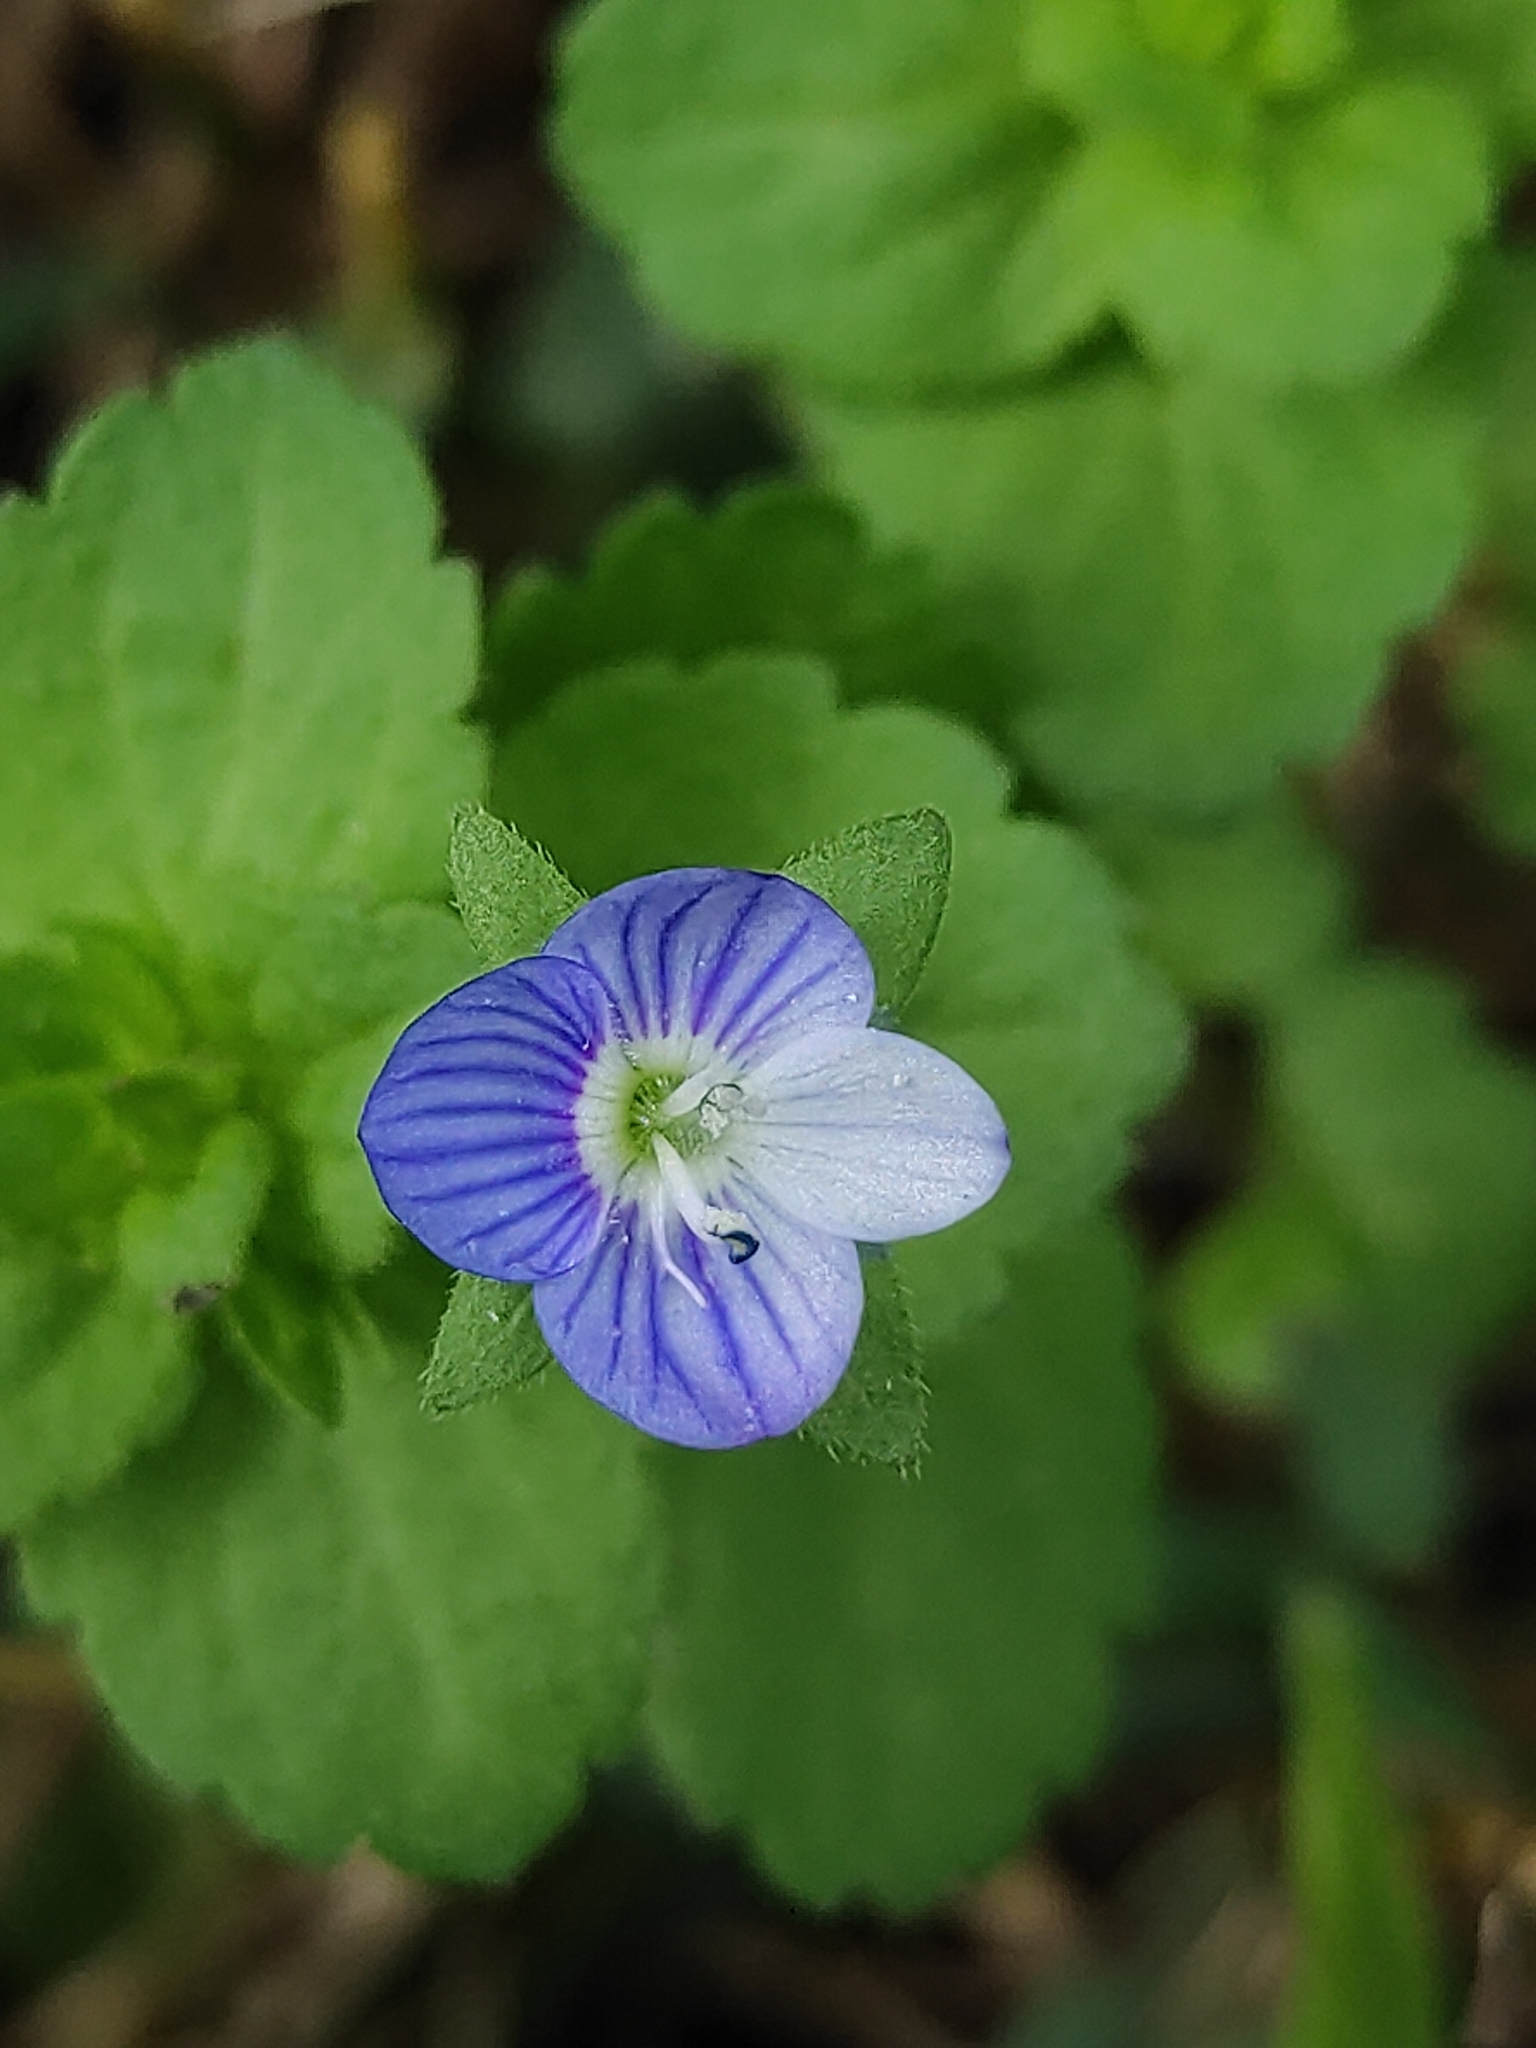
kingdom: Plantae
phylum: Tracheophyta
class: Magnoliopsida
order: Lamiales
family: Plantaginaceae
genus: Veronica
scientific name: Veronica persica
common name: Common field-speedwell
